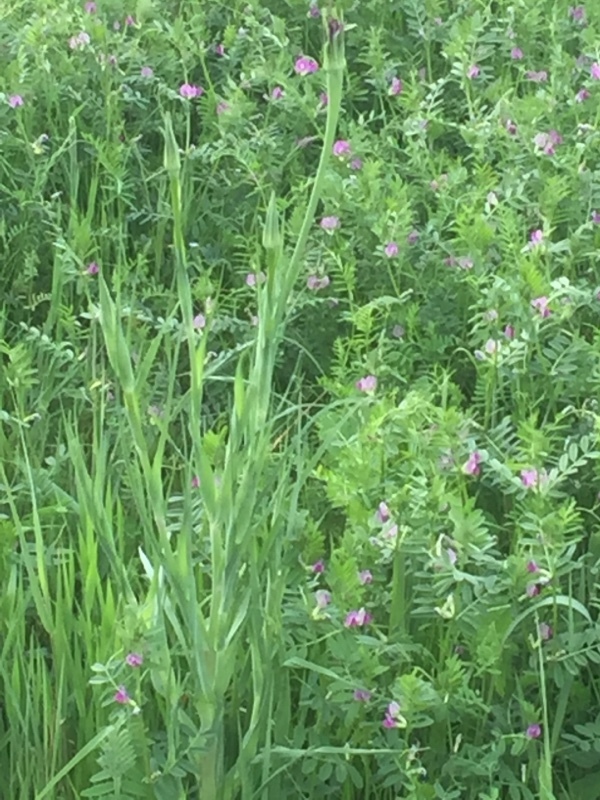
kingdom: Plantae
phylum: Tracheophyta
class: Magnoliopsida
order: Asterales
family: Asteraceae
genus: Tragopogon
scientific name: Tragopogon porrifolius
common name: Salsify
